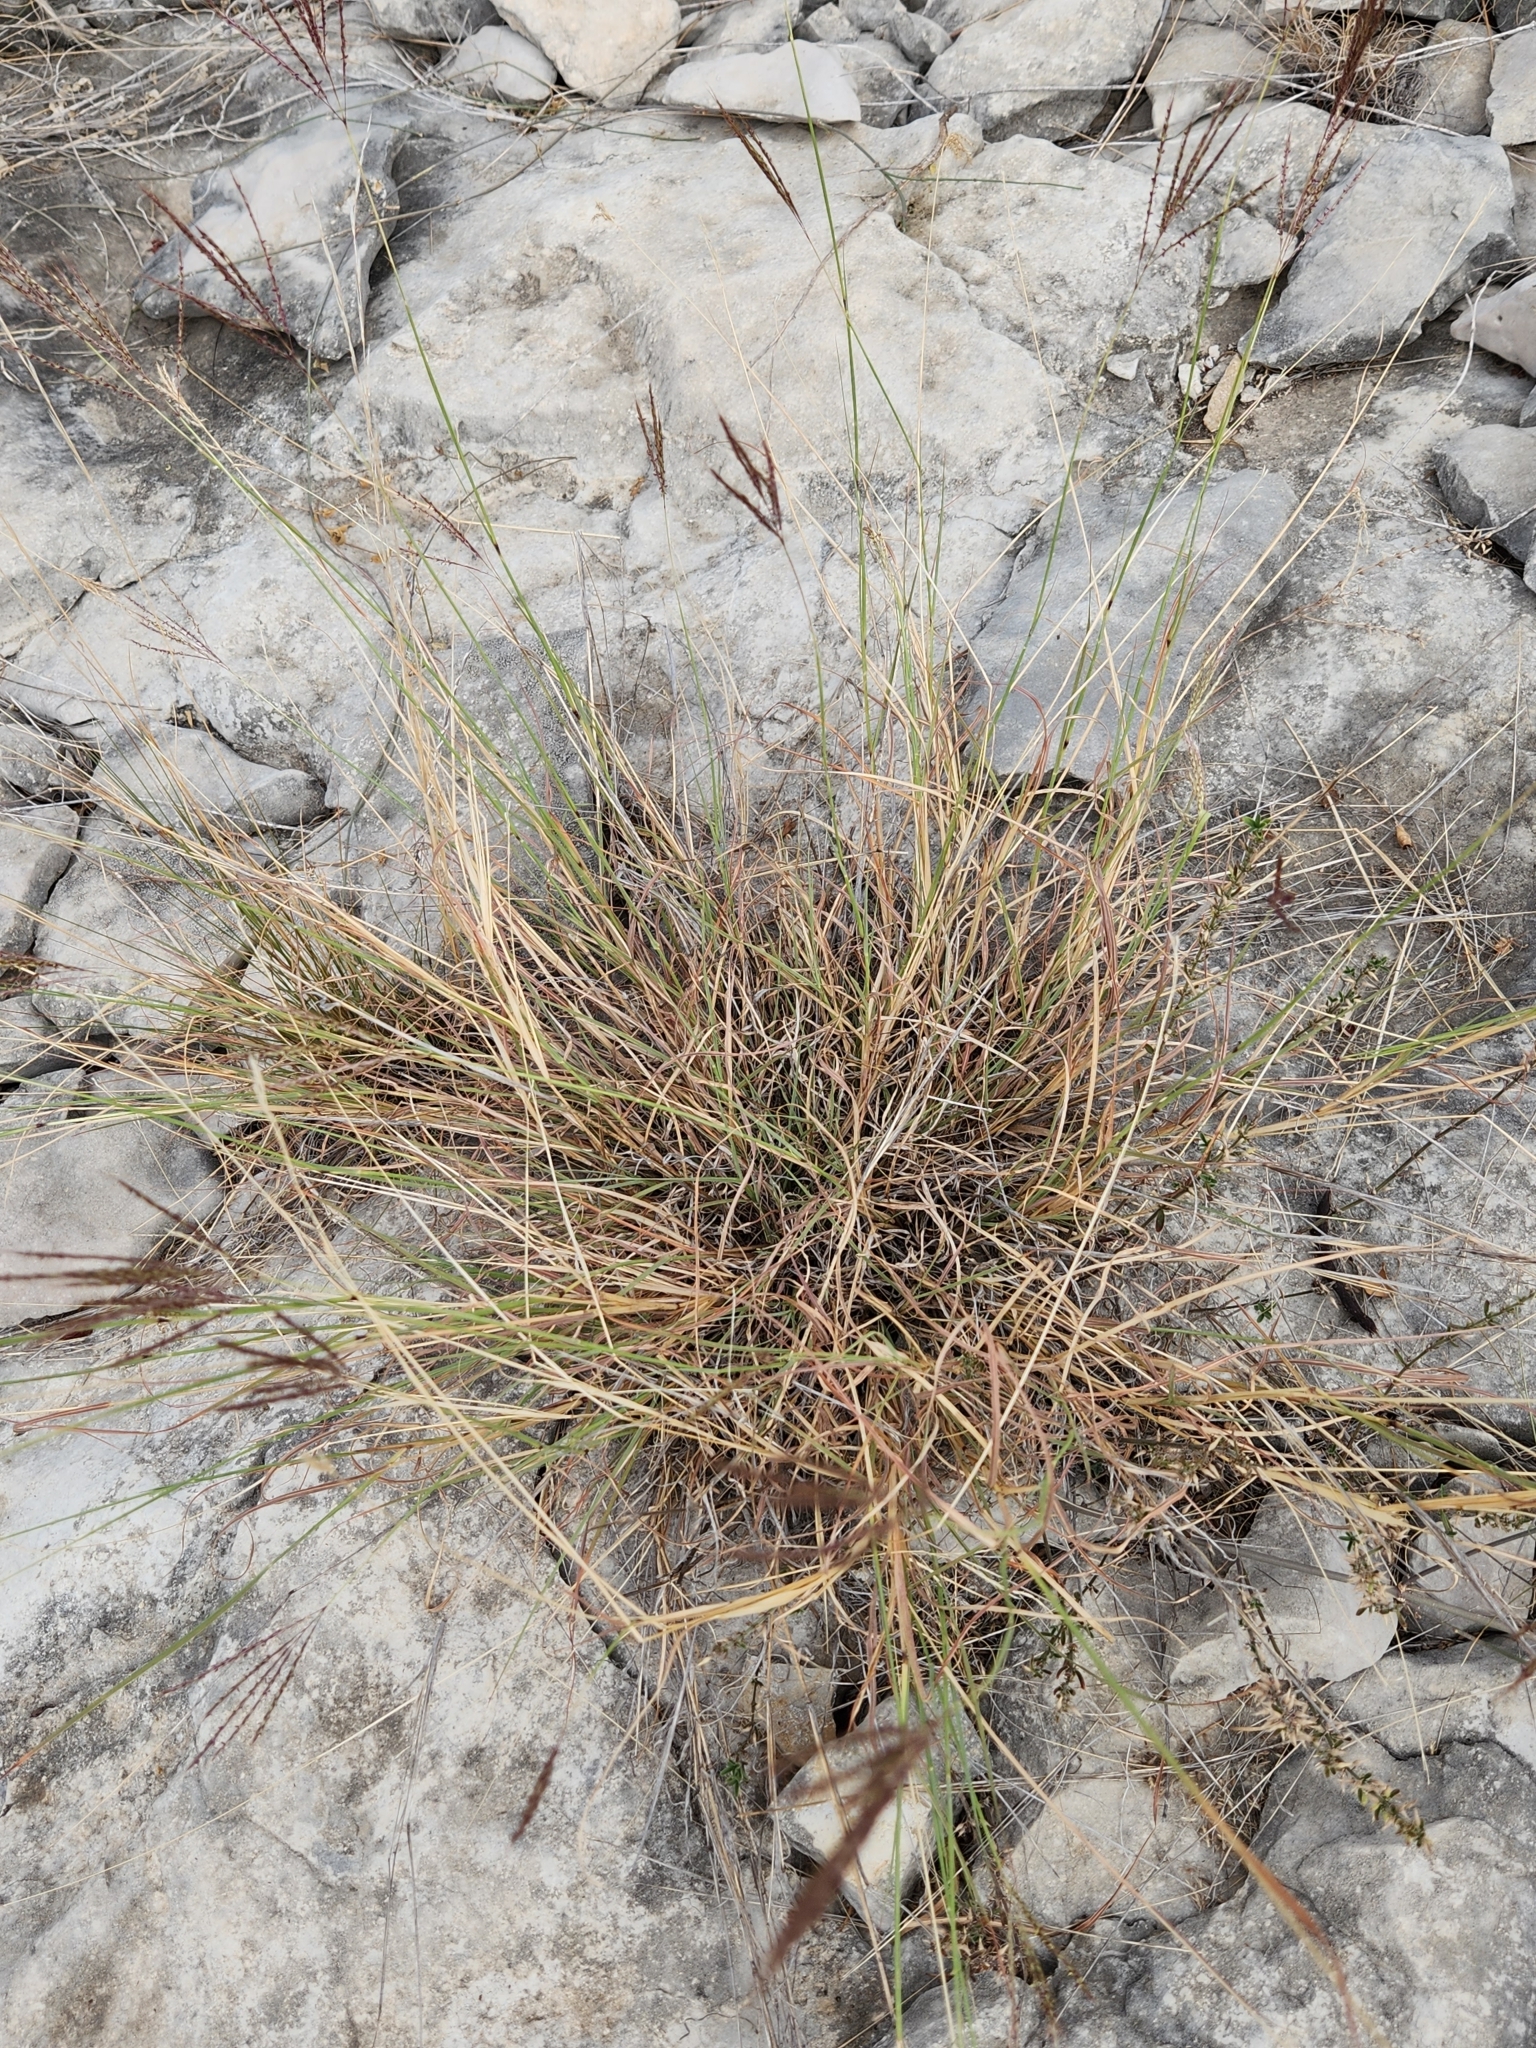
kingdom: Plantae
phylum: Tracheophyta
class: Liliopsida
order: Poales
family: Poaceae
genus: Bothriochloa
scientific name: Bothriochloa ischaemum
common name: Yellow bluestem
